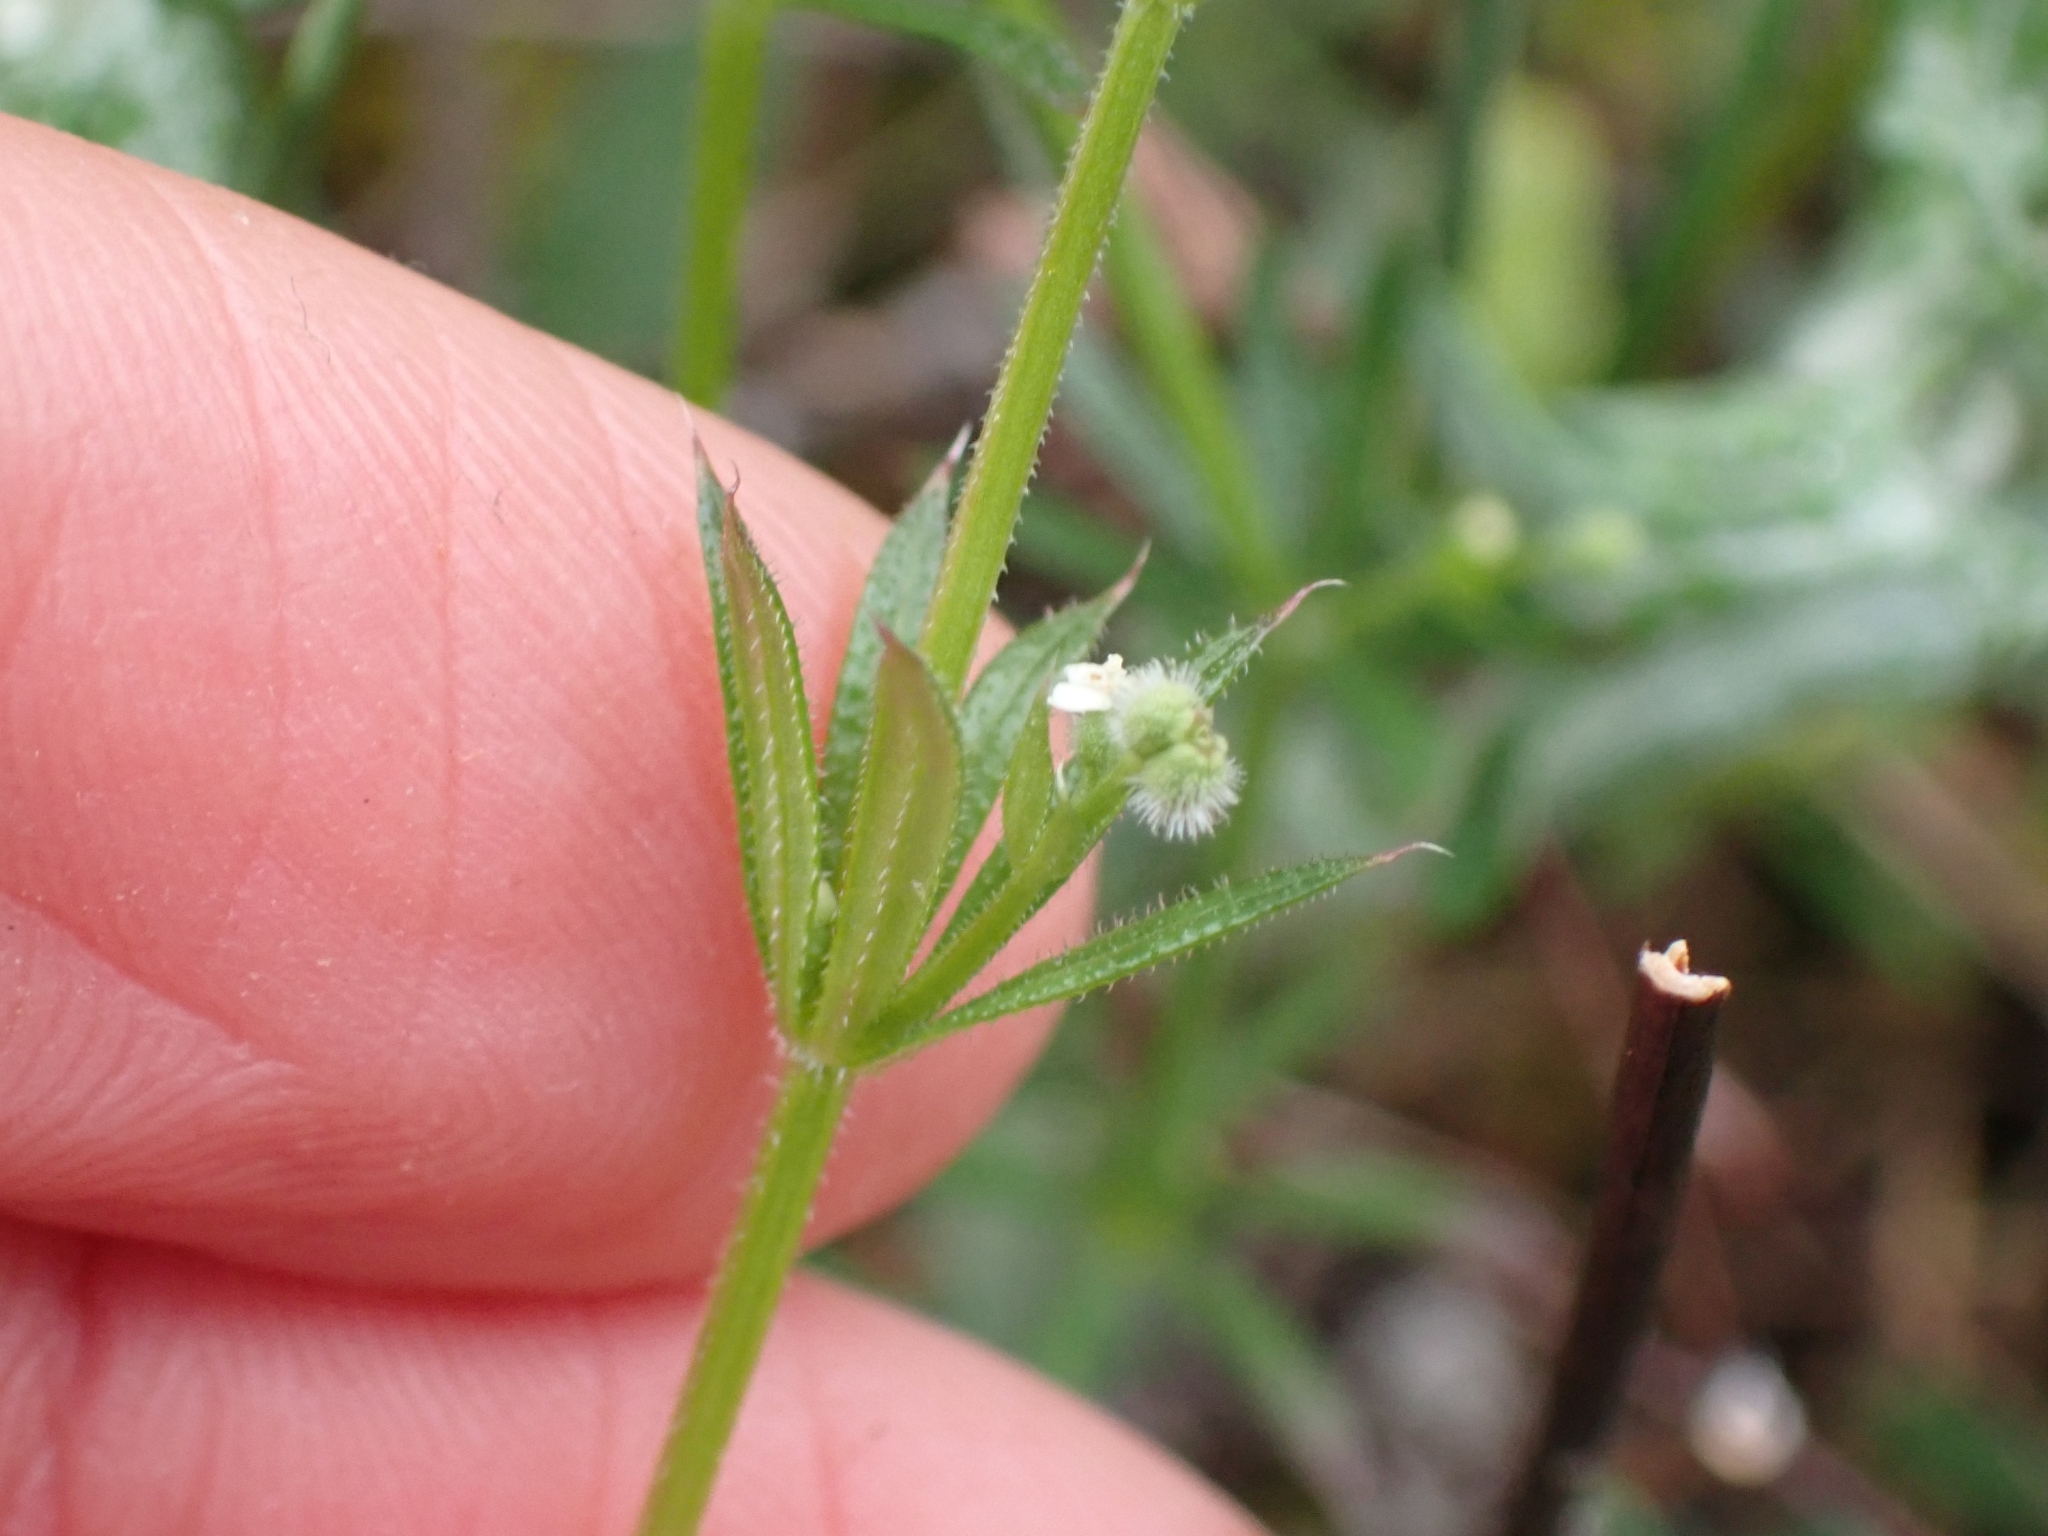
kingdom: Plantae
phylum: Tracheophyta
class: Magnoliopsida
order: Gentianales
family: Rubiaceae
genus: Galium
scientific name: Galium aparine
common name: Cleavers
